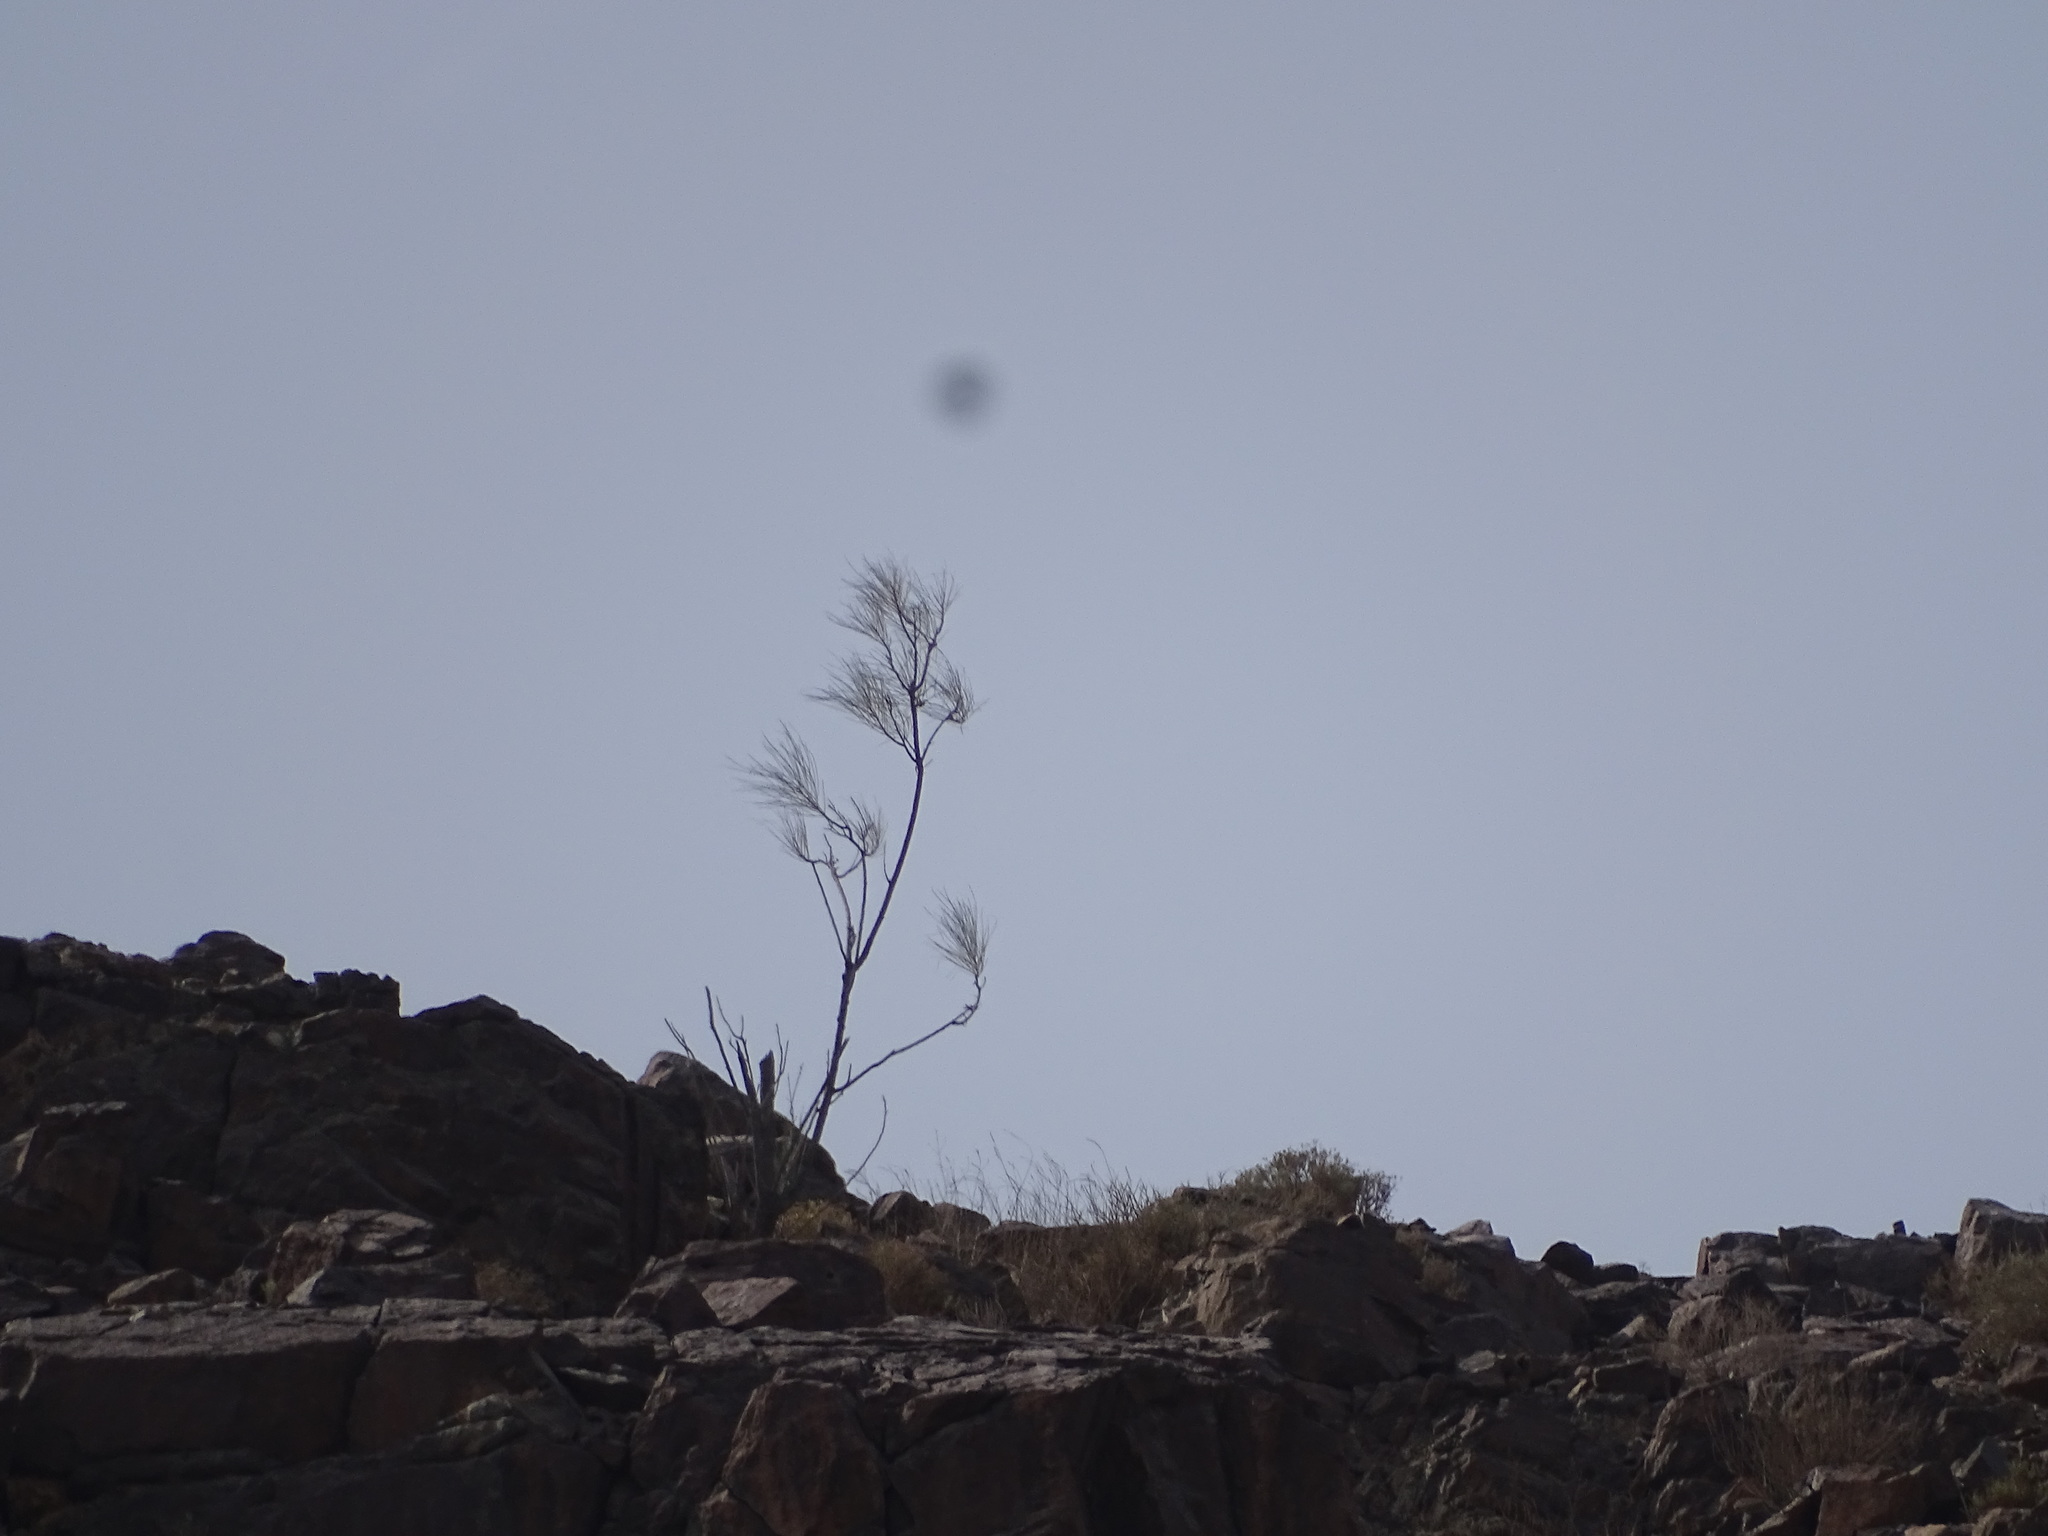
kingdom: Plantae
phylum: Tracheophyta
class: Magnoliopsida
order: Brassicales
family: Moringaceae
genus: Moringa
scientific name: Moringa peregrina
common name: Wild drumstick tree
